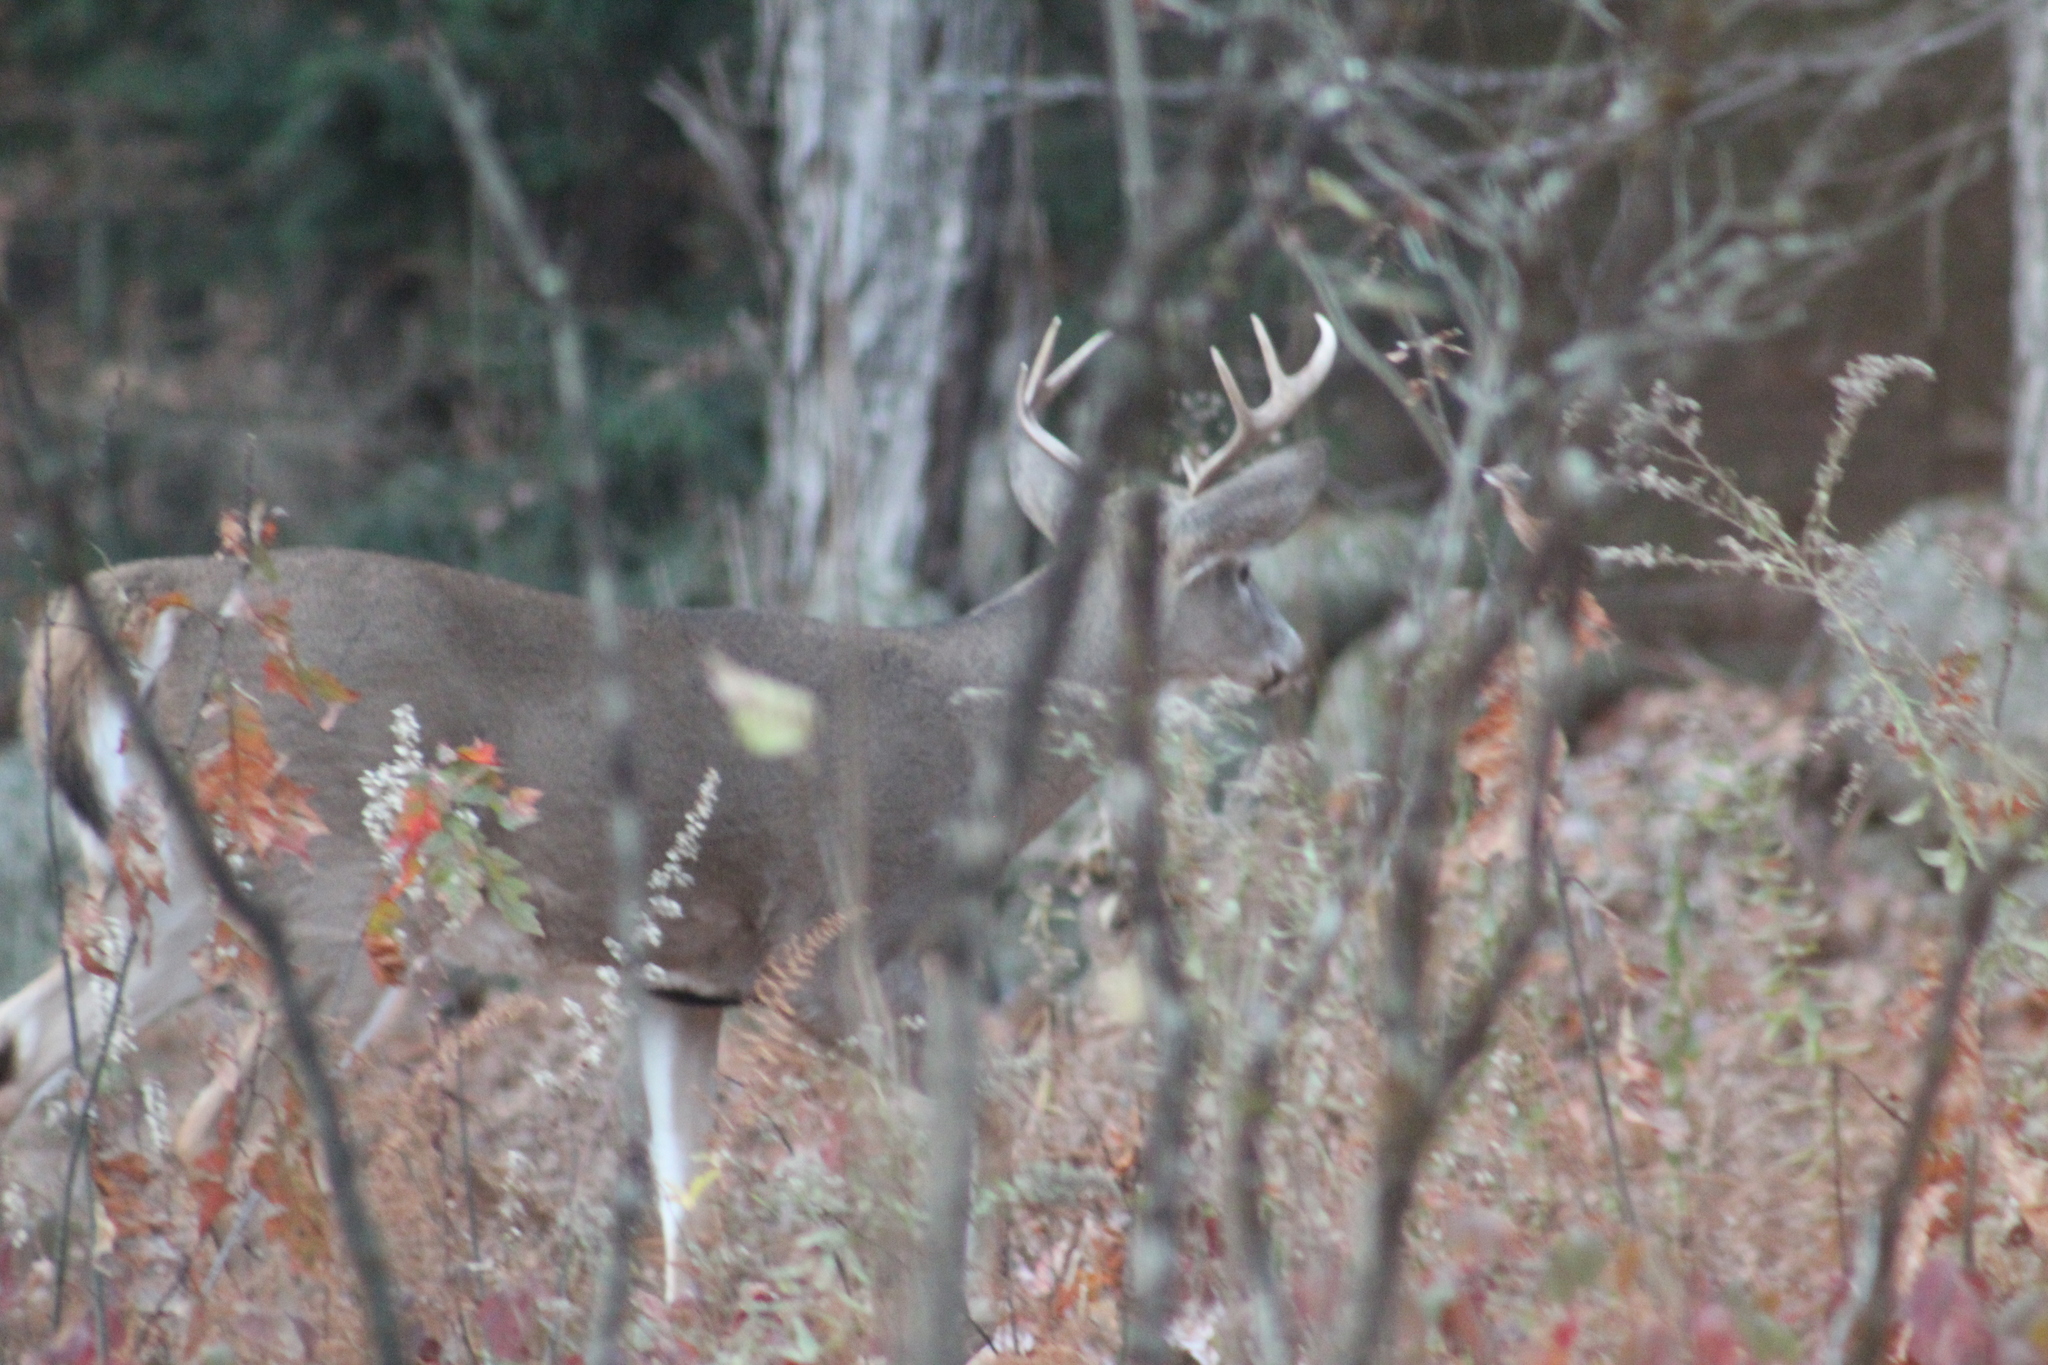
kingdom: Animalia
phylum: Chordata
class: Mammalia
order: Artiodactyla
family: Cervidae
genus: Odocoileus
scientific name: Odocoileus virginianus
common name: White-tailed deer
